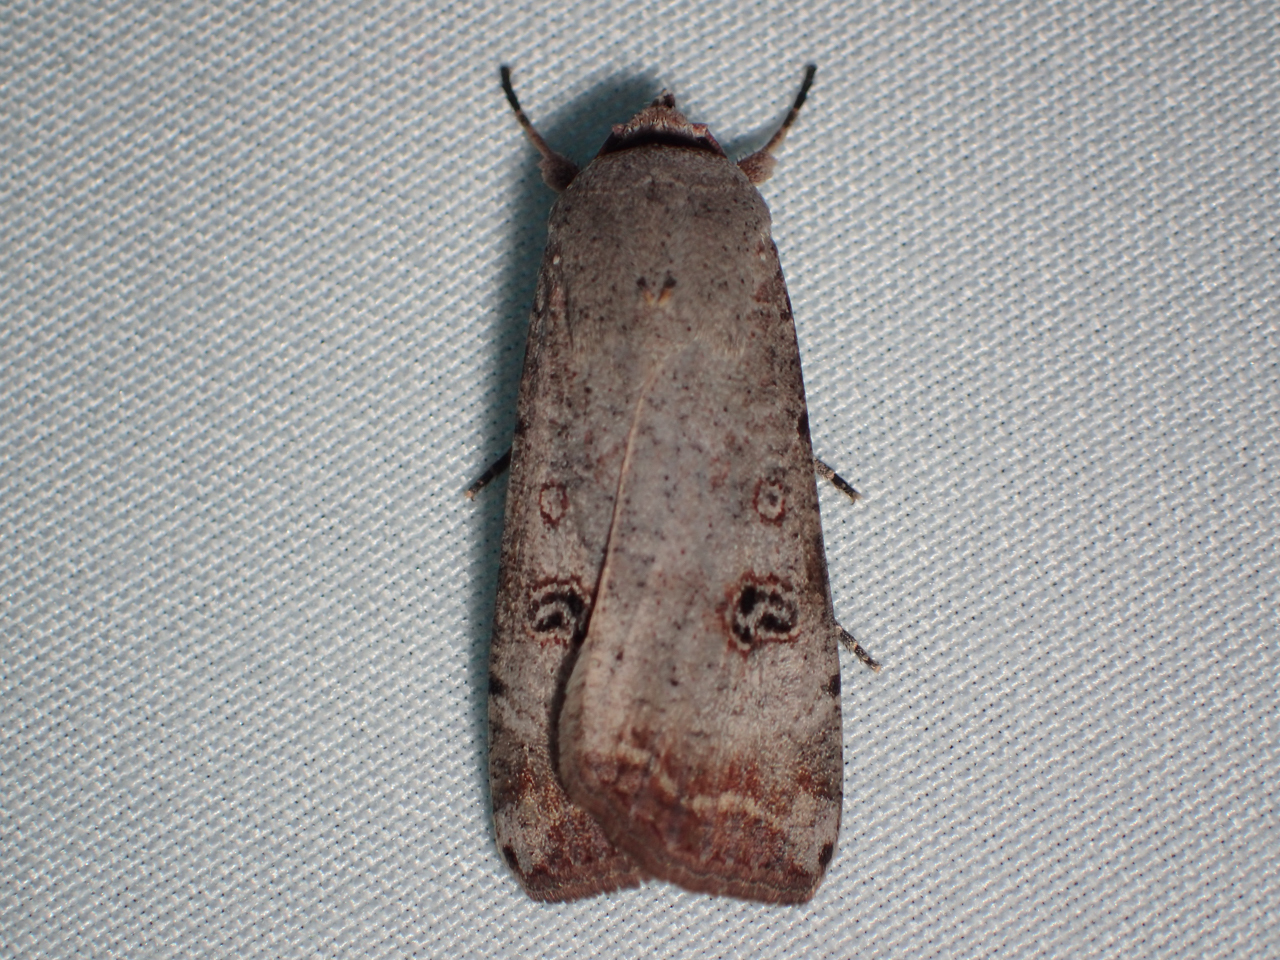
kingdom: Animalia
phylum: Arthropoda
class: Insecta
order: Lepidoptera
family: Noctuidae
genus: Anicla
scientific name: Anicla infecta
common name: Green cutworm
